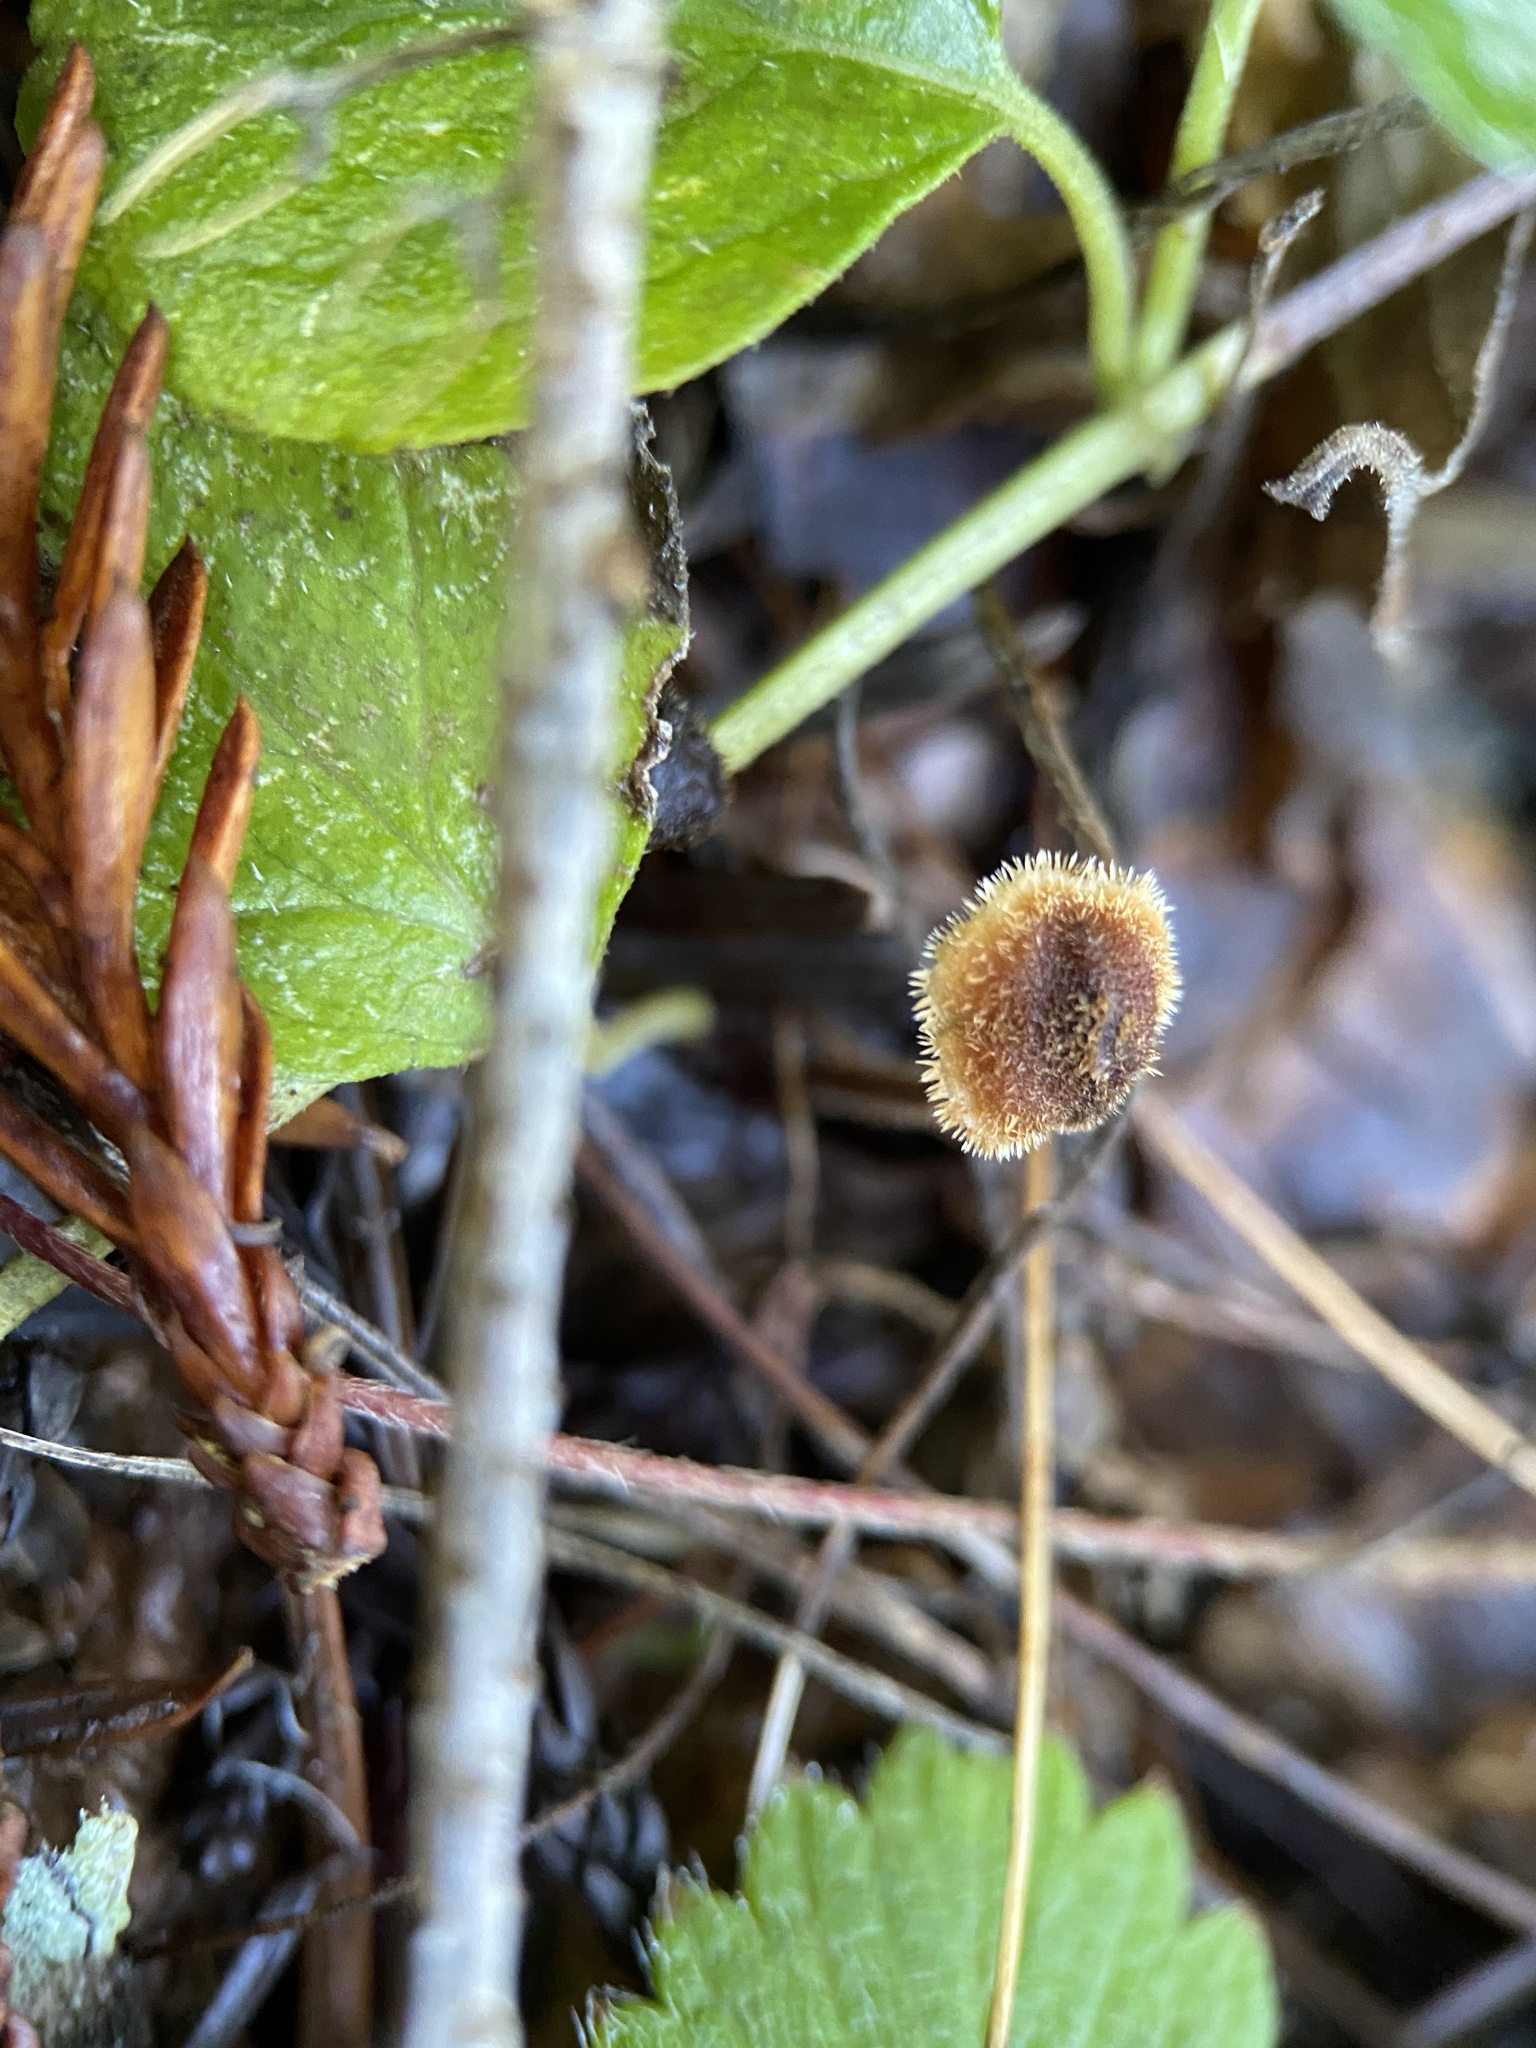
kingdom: Fungi
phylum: Basidiomycota
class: Agaricomycetes
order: Russulales
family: Auriscalpiaceae
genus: Auriscalpium
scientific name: Auriscalpium vulgare
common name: Earpick fungus
